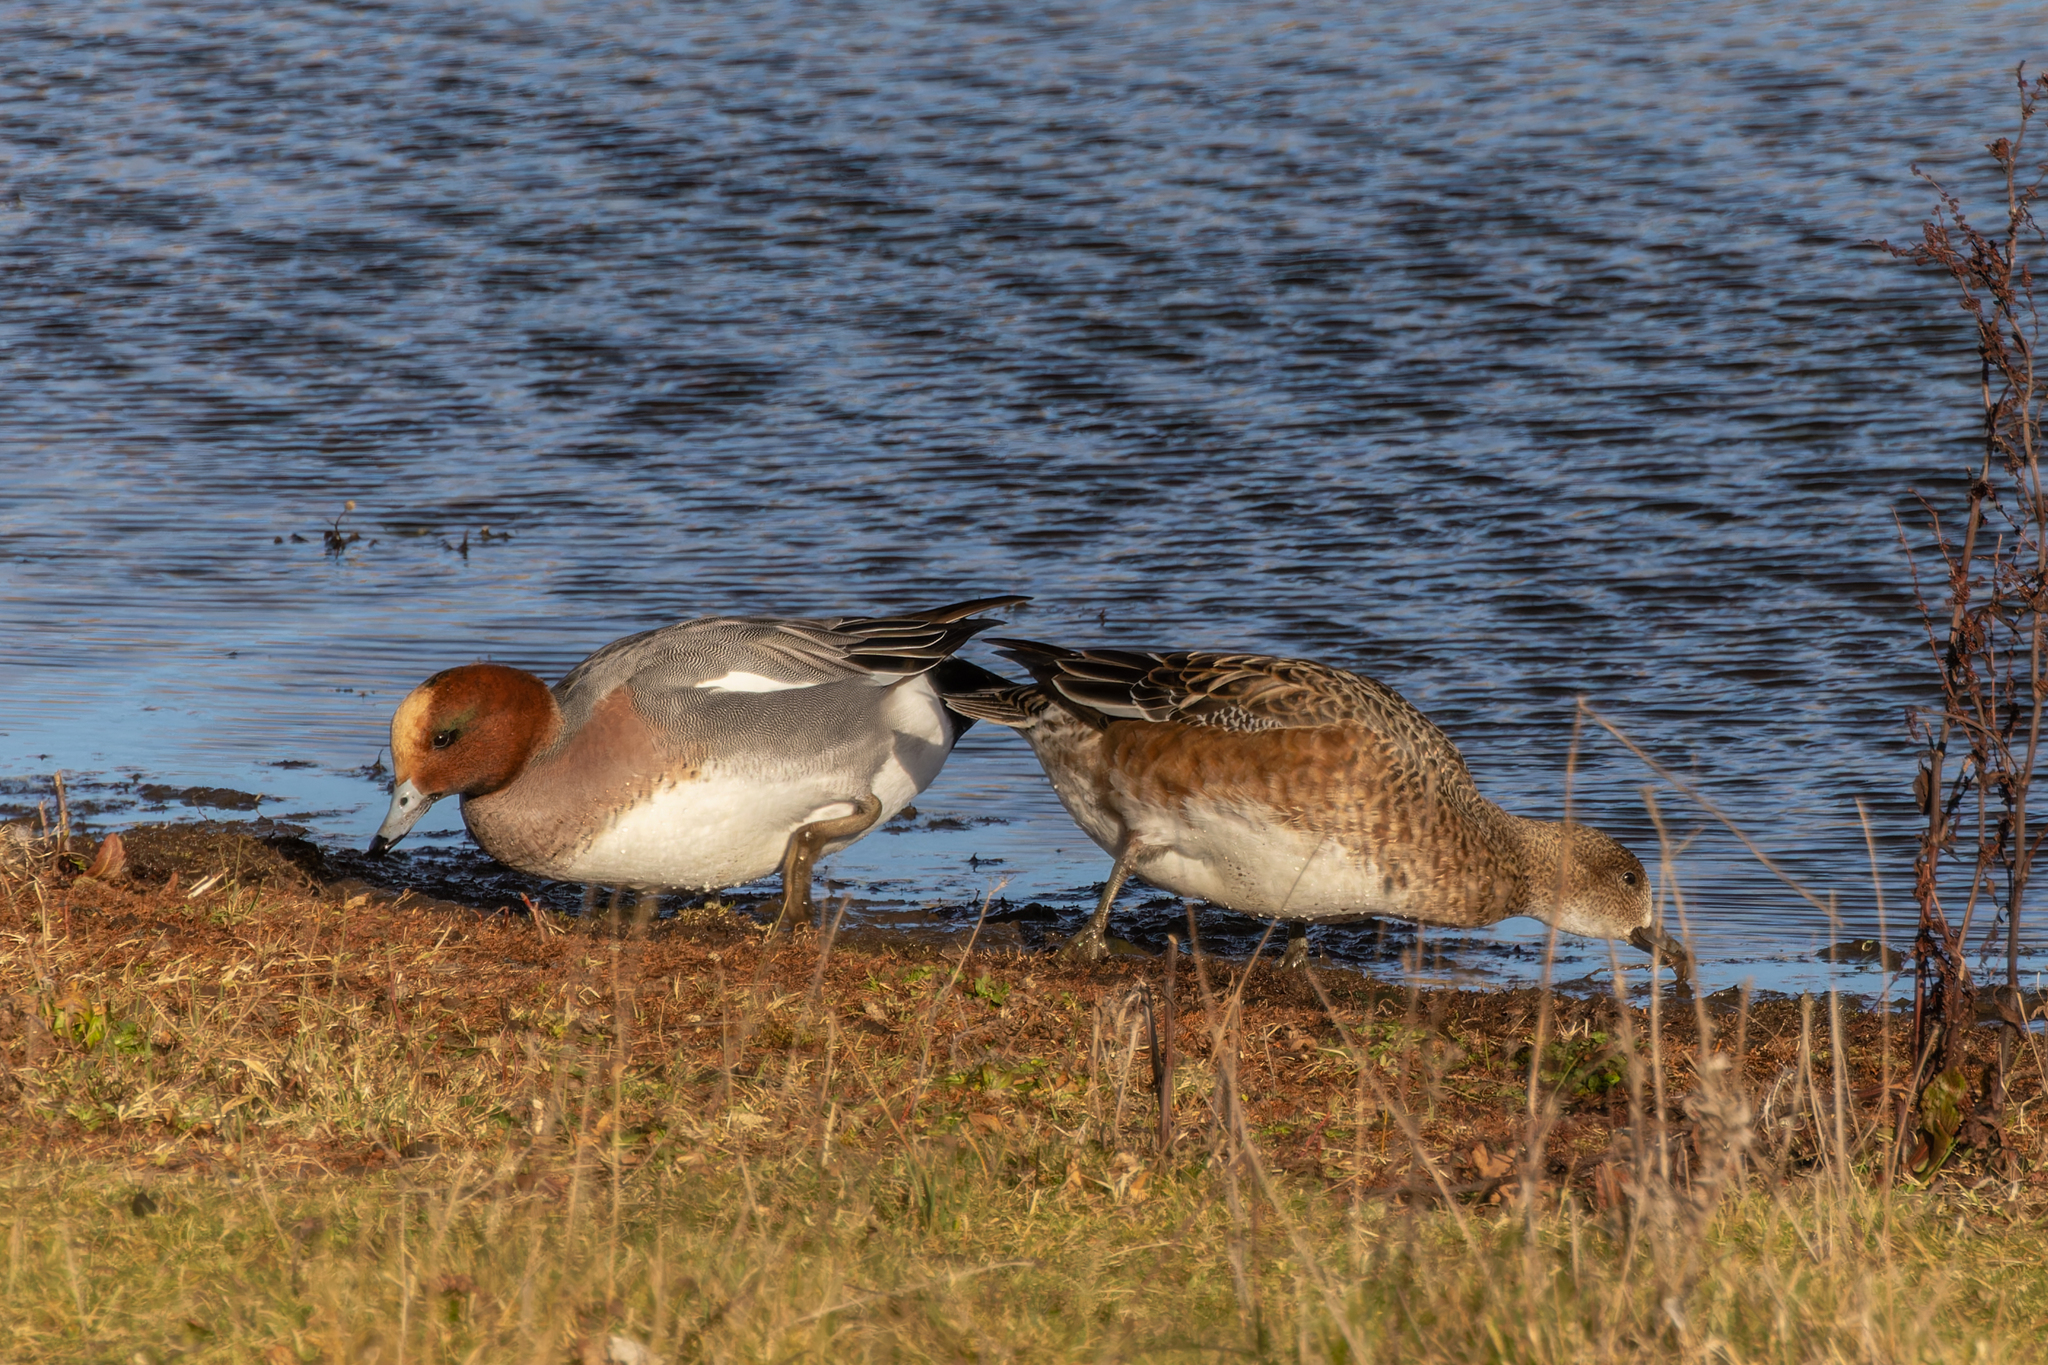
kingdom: Animalia
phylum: Chordata
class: Aves
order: Anseriformes
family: Anatidae
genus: Mareca
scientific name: Mareca penelope
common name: Eurasian wigeon
